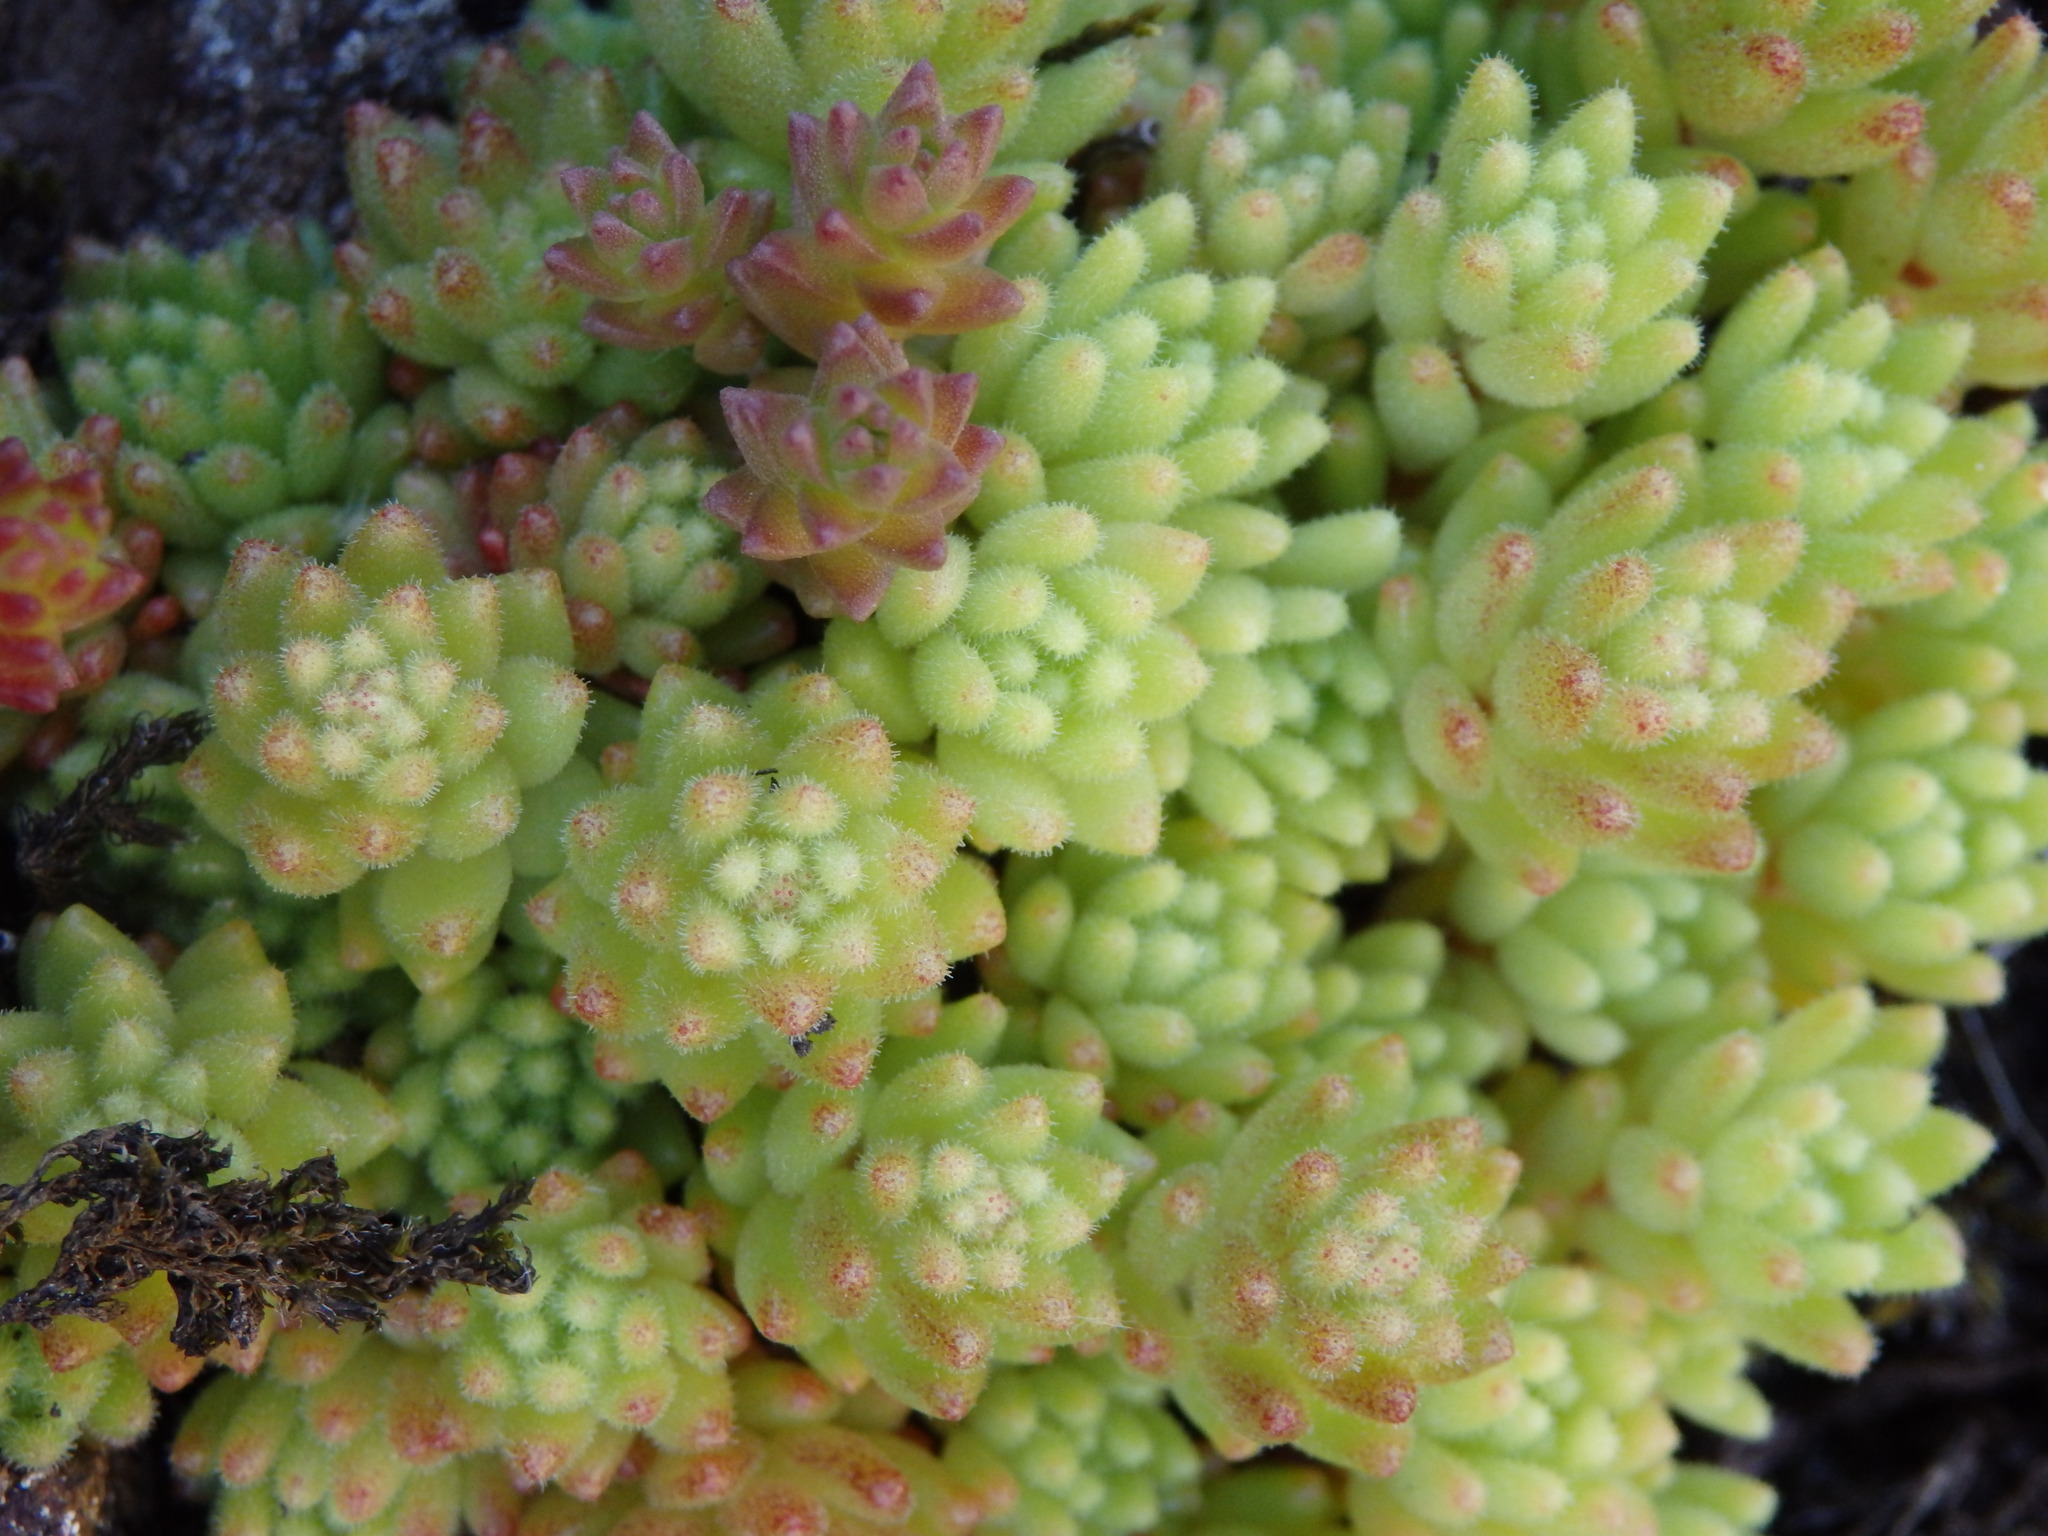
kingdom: Plantae
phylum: Tracheophyta
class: Magnoliopsida
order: Saxifragales
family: Crassulaceae
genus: Sedum
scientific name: Sedum hirsutum
